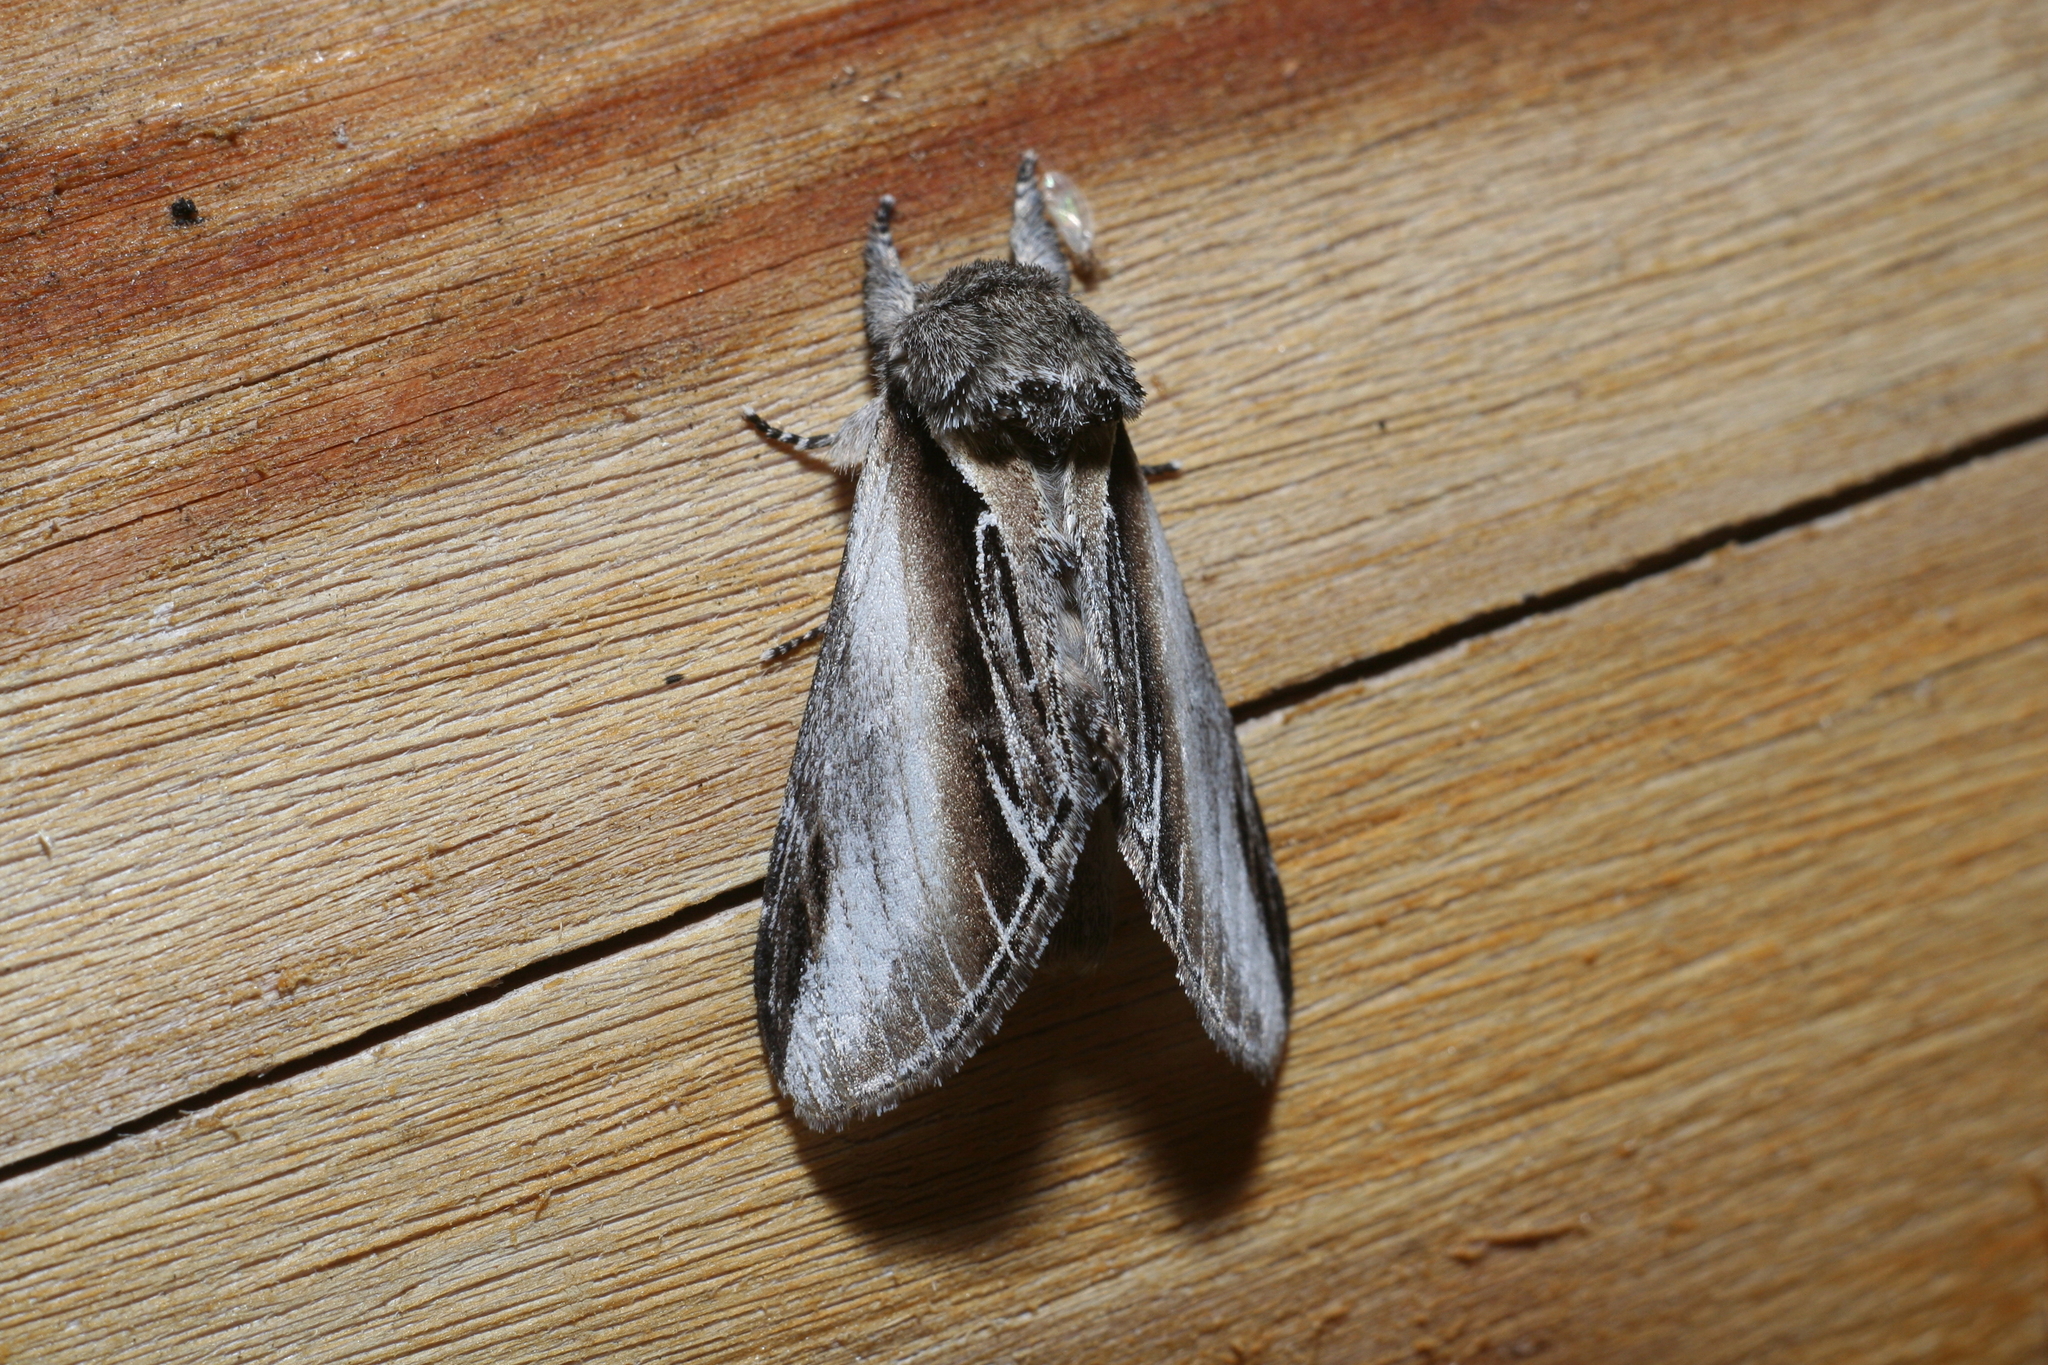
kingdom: Animalia
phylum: Arthropoda
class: Insecta
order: Lepidoptera
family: Notodontidae
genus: Pheosia
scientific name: Pheosia tremula
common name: Swallow prominent
